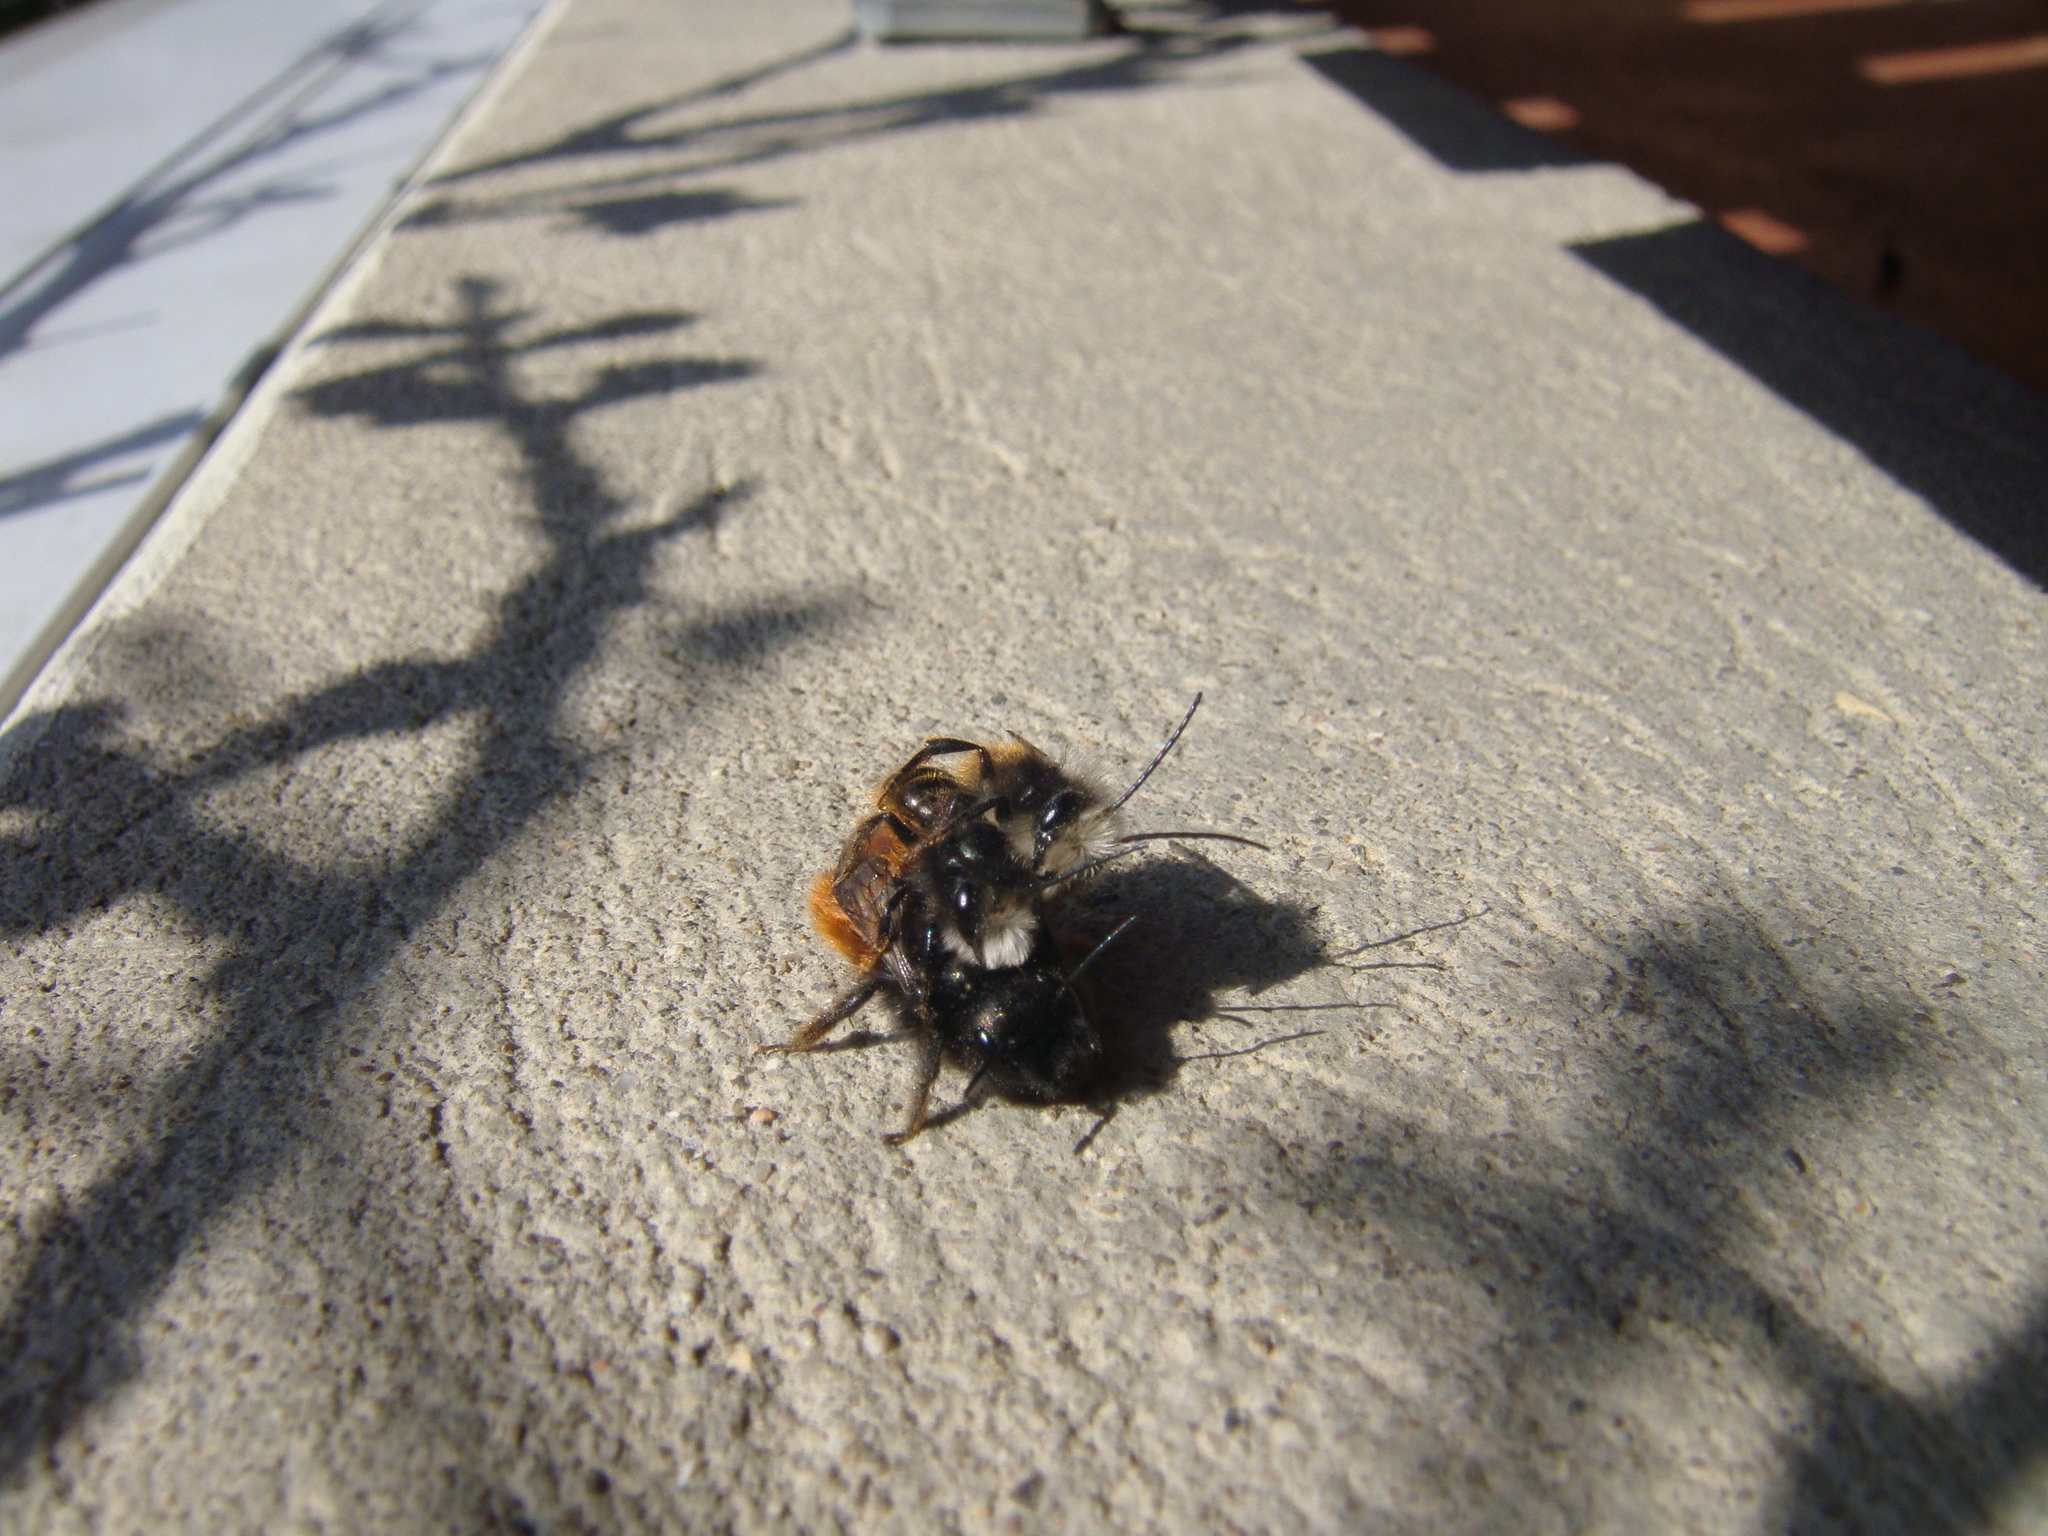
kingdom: Animalia
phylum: Arthropoda
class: Insecta
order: Hymenoptera
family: Megachilidae
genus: Osmia
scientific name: Osmia cornuta
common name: Mason bee
